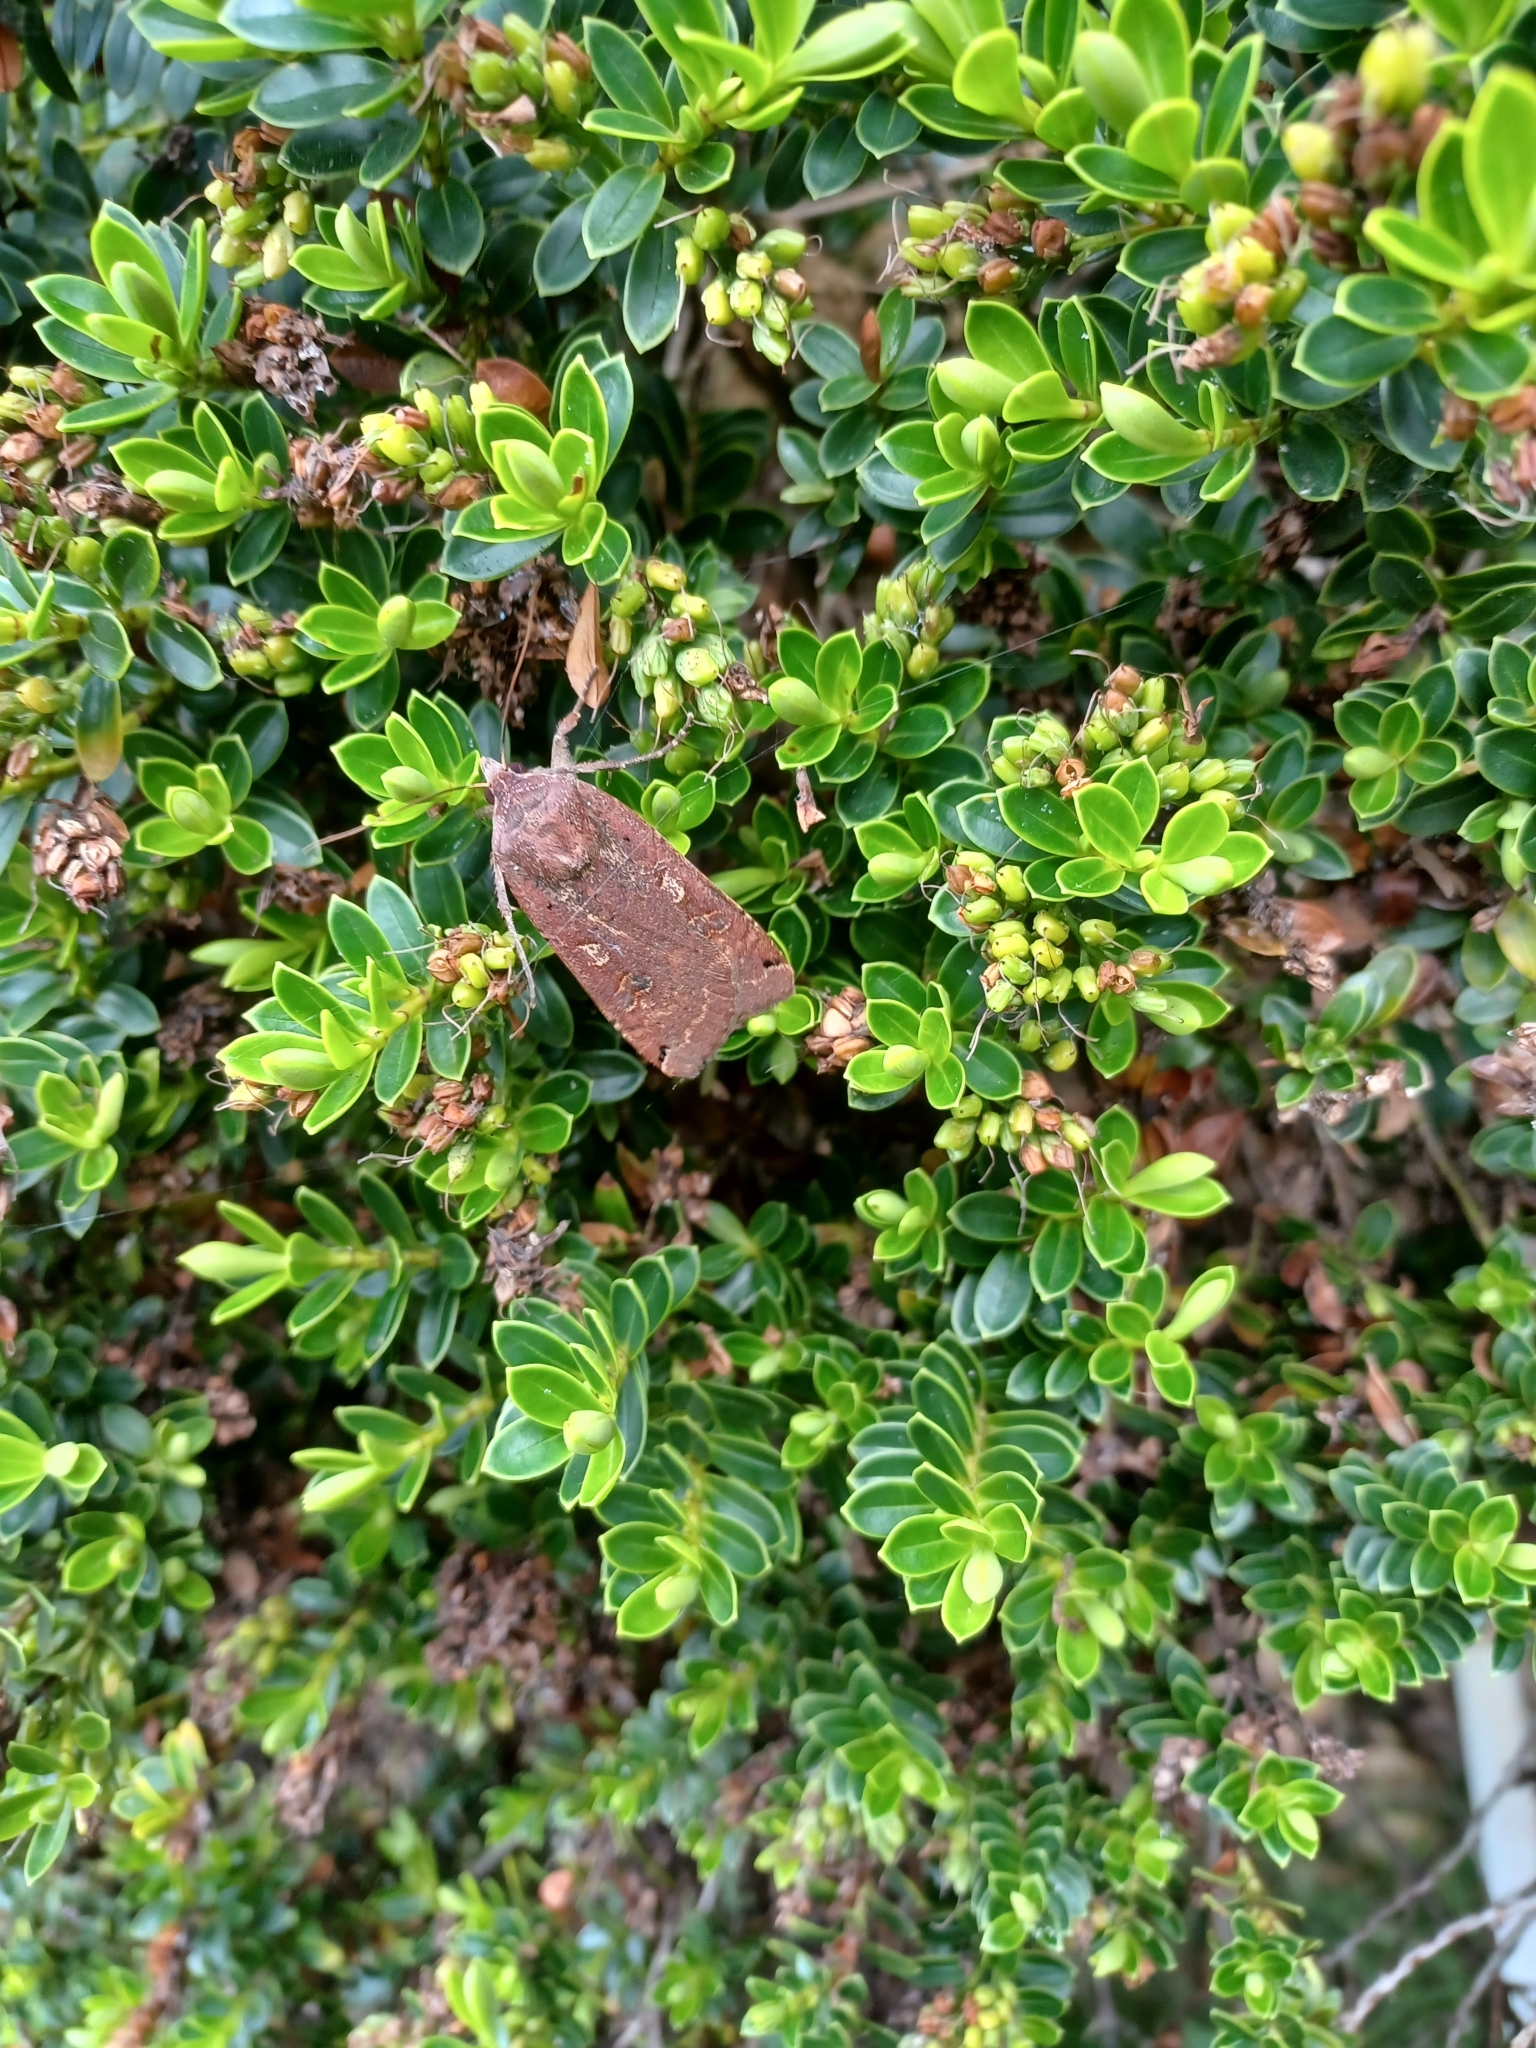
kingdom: Animalia
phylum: Arthropoda
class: Insecta
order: Lepidoptera
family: Noctuidae
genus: Noctua
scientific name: Noctua pronuba
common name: Large yellow underwing
